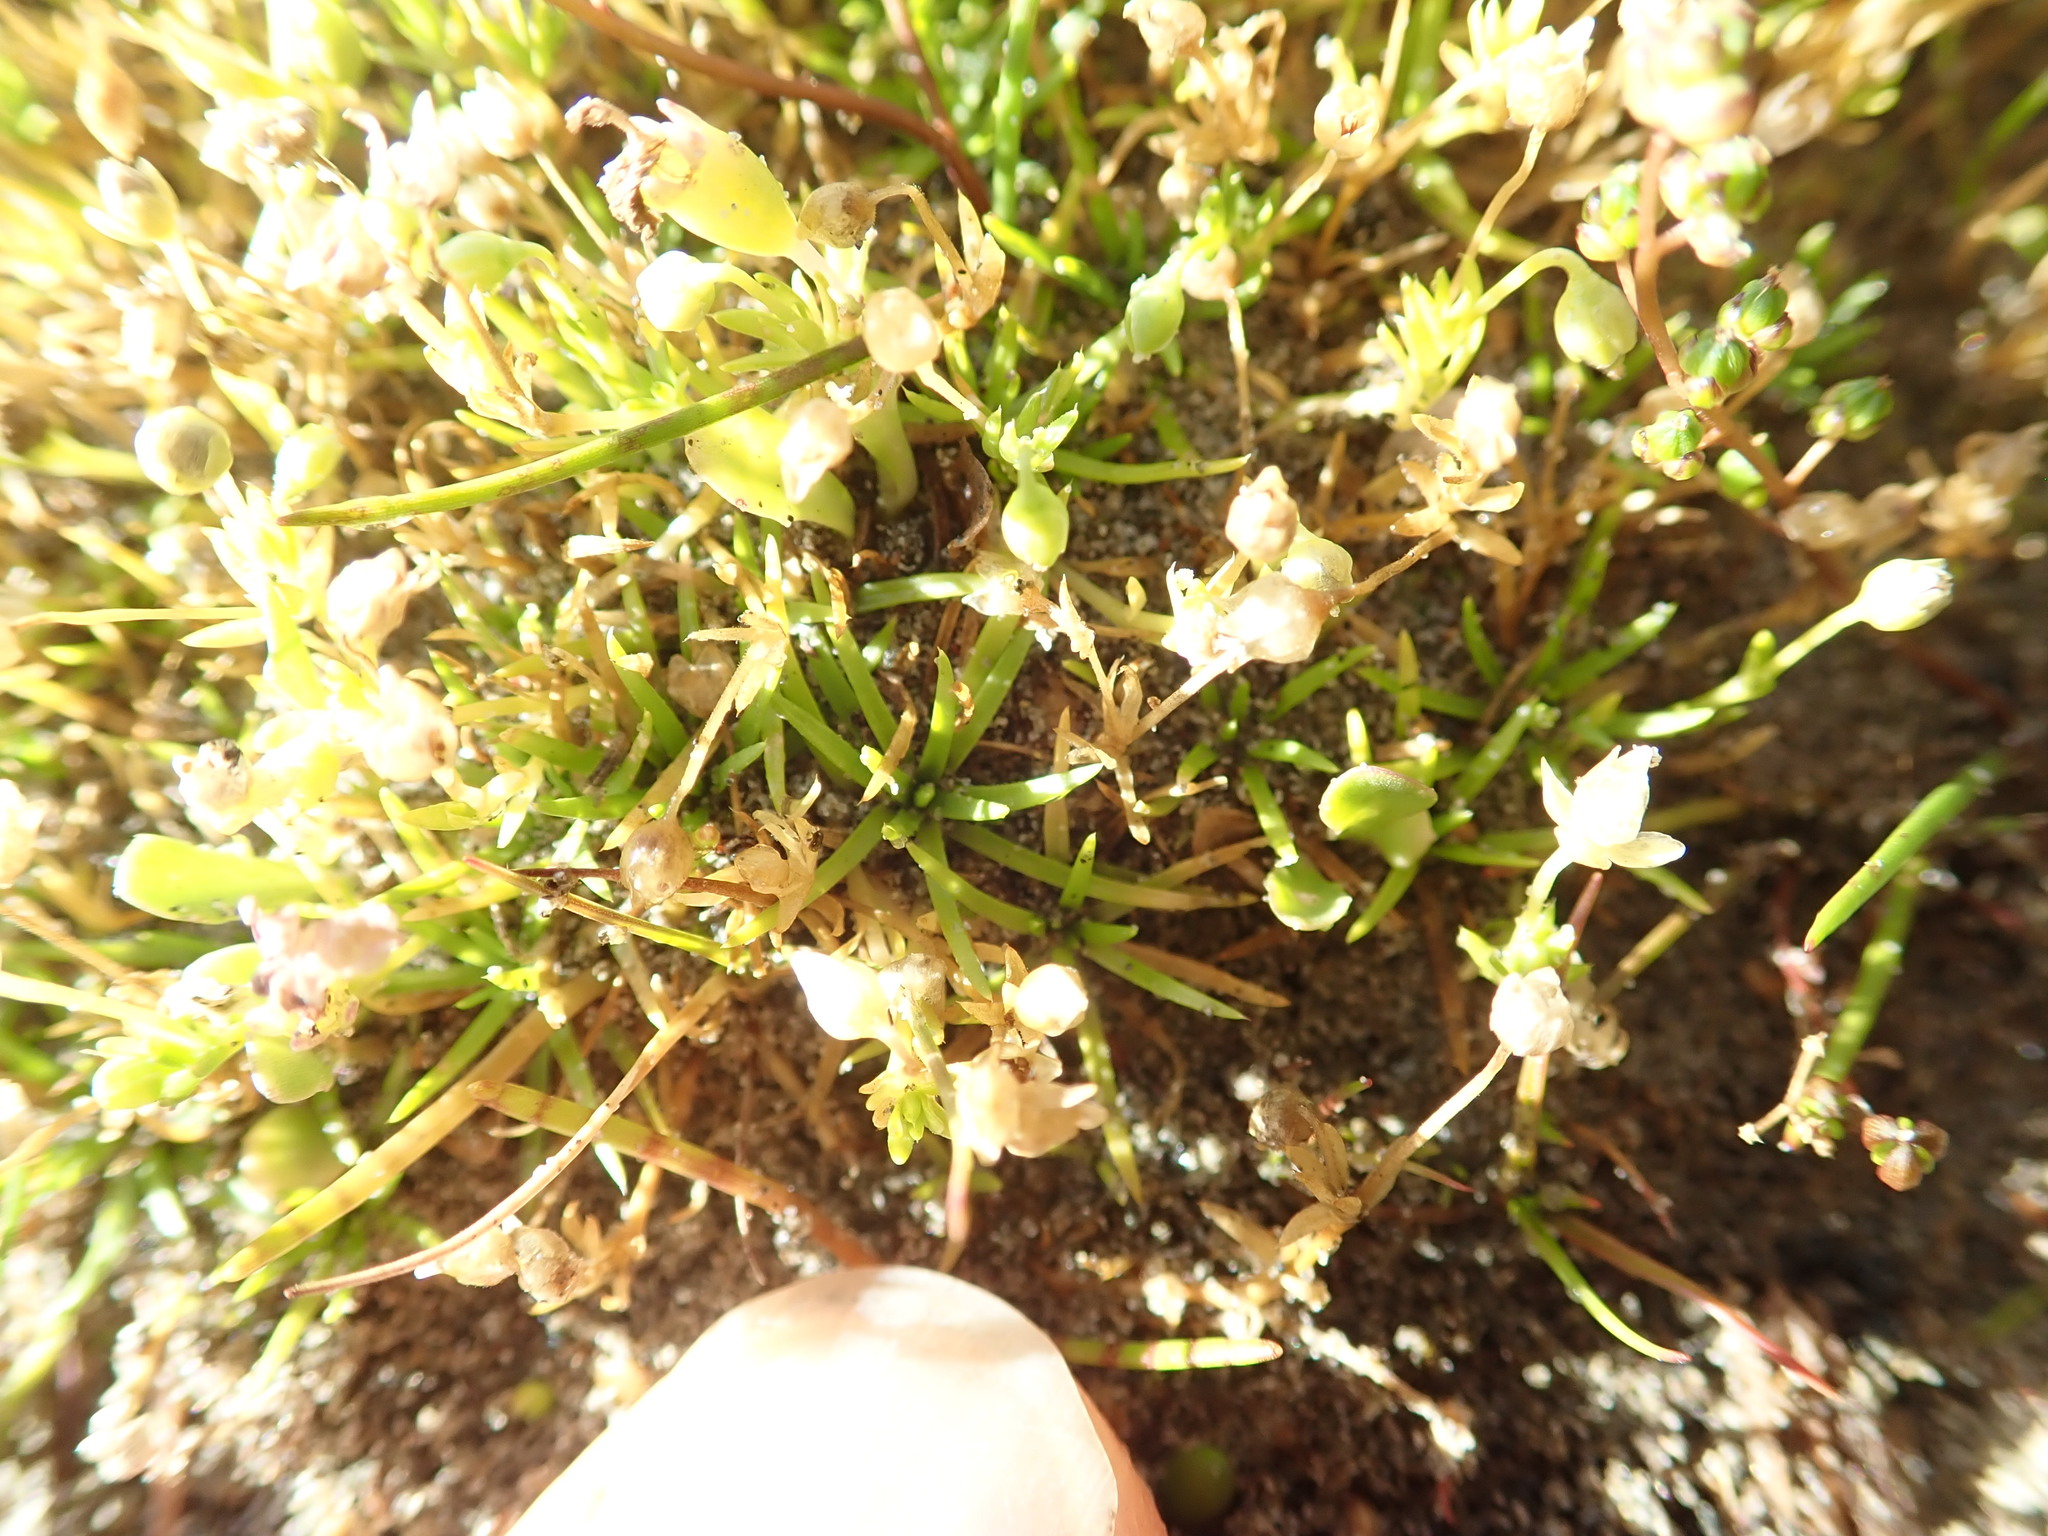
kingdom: Plantae
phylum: Tracheophyta
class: Magnoliopsida
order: Caryophyllales
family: Caryophyllaceae
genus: Sagina
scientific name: Sagina procumbens
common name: Procumbent pearlwort
